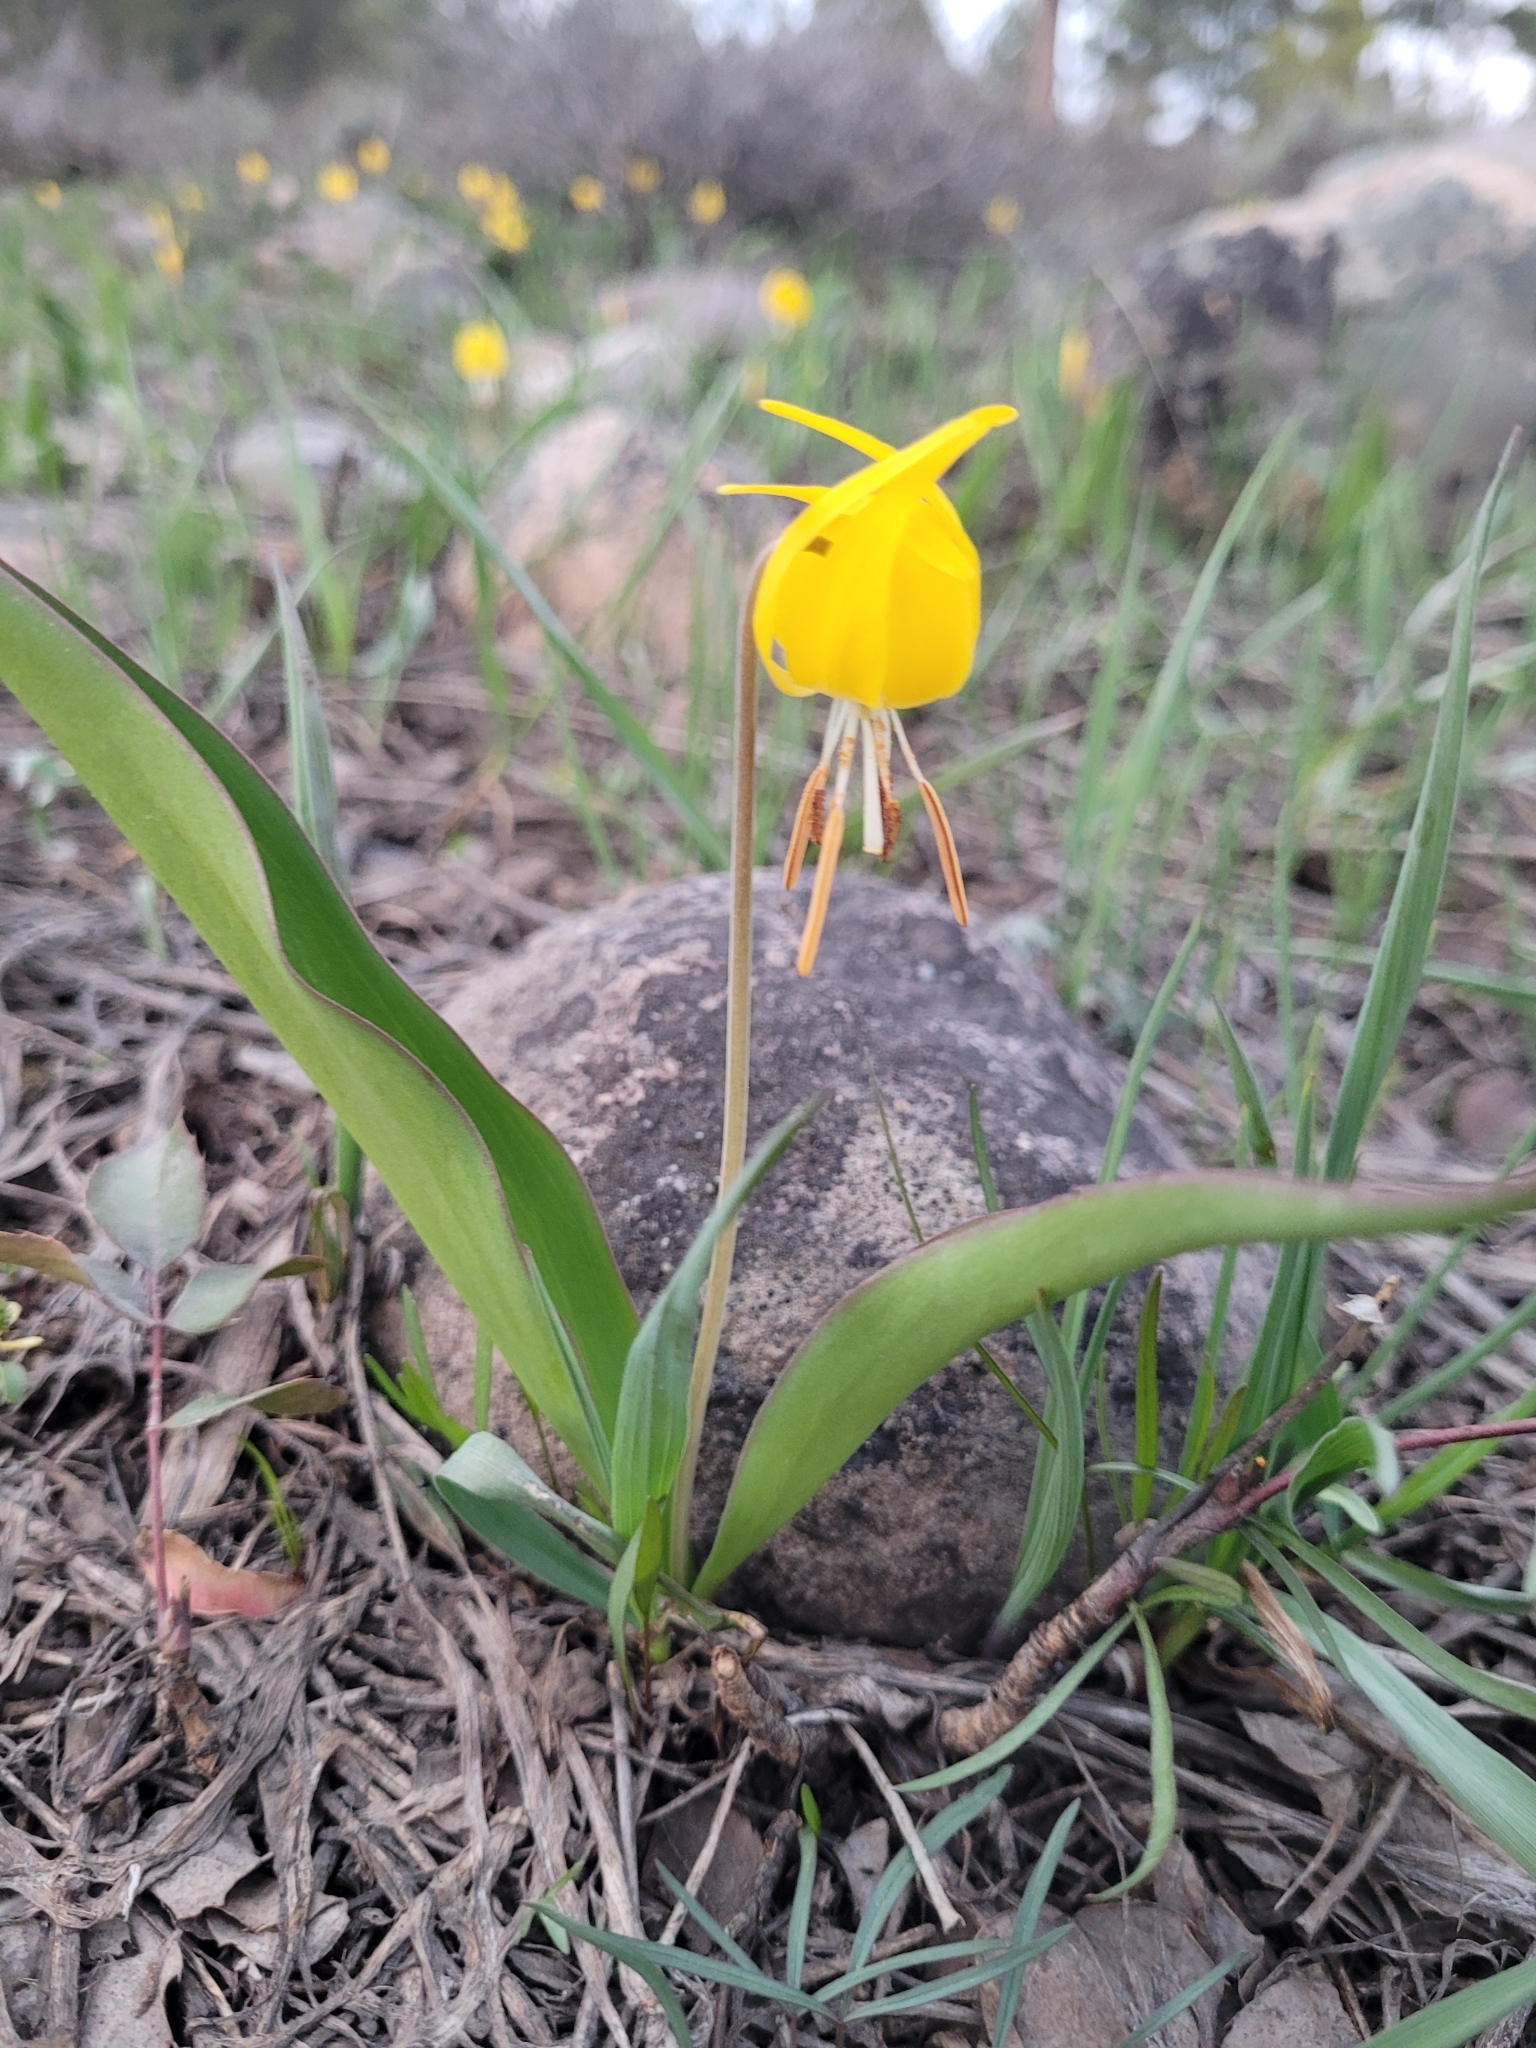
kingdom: Plantae
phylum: Tracheophyta
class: Liliopsida
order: Liliales
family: Liliaceae
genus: Erythronium
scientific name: Erythronium grandiflorum
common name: Avalanche-lily
